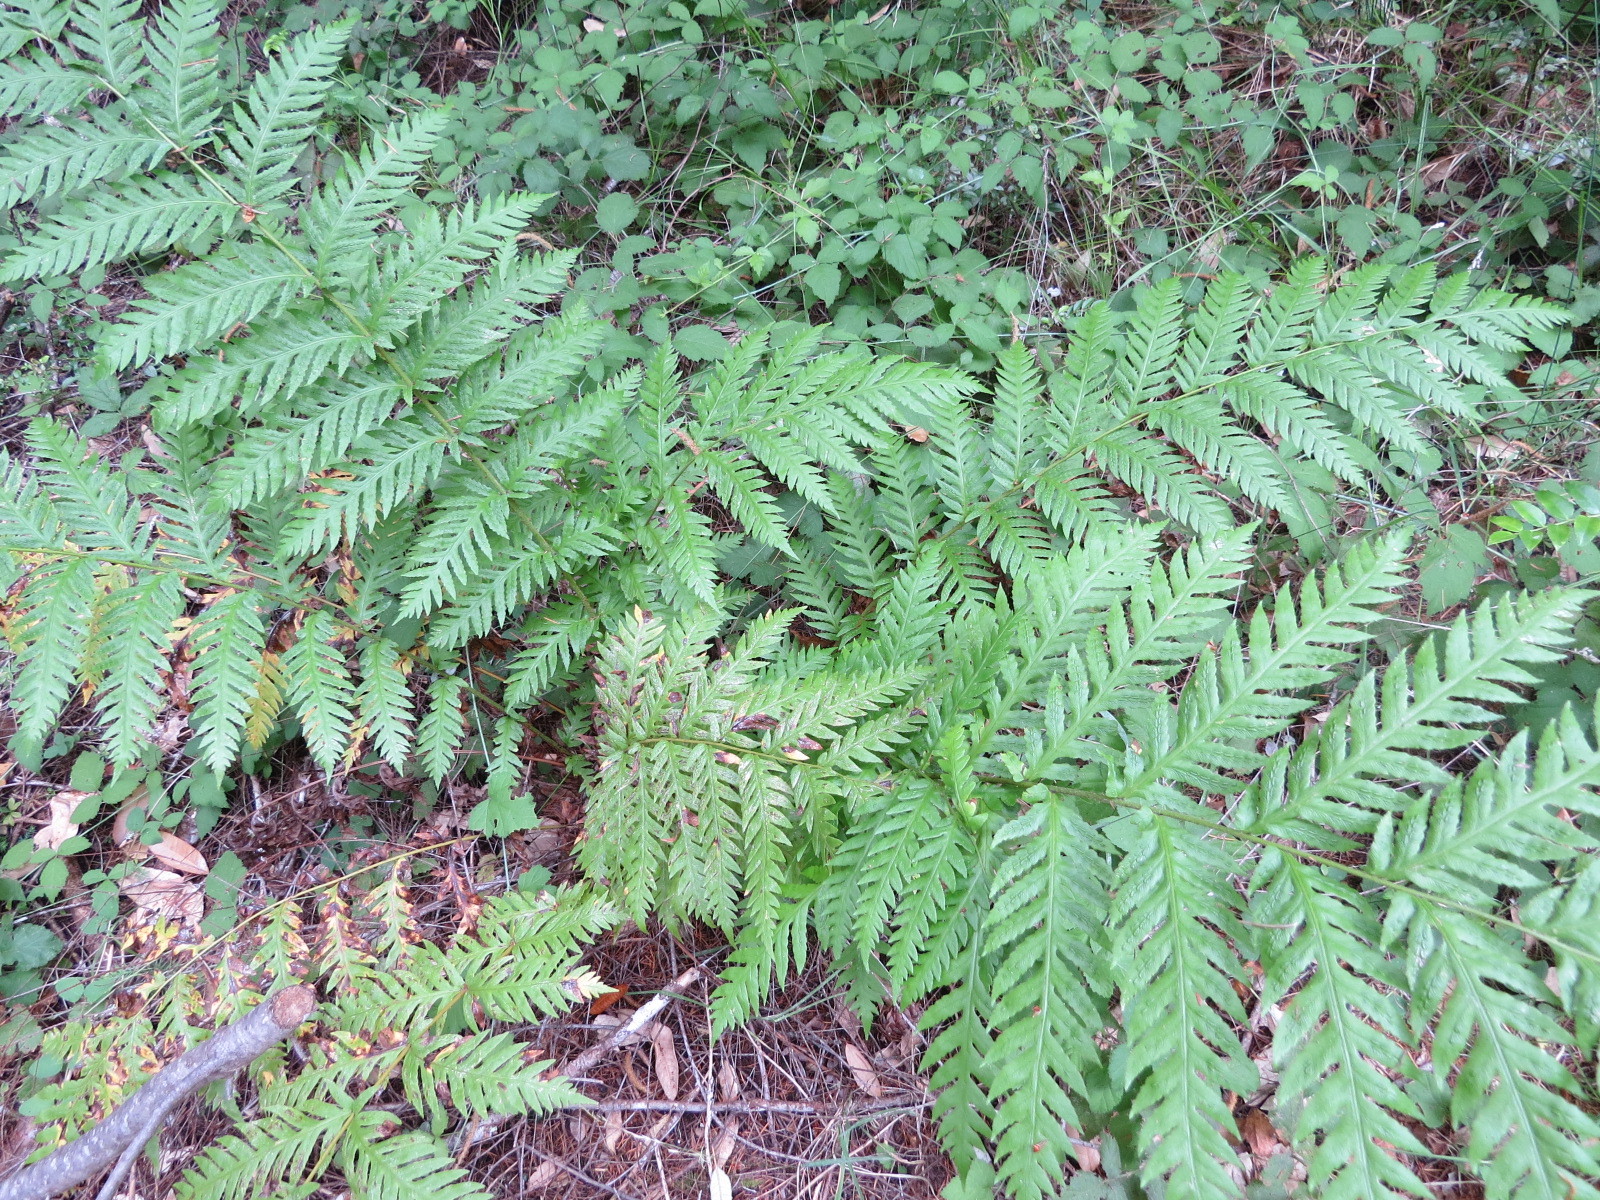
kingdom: Plantae
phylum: Tracheophyta
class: Polypodiopsida
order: Polypodiales
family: Blechnaceae
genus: Woodwardia
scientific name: Woodwardia fimbriata
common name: Giant chain fern
